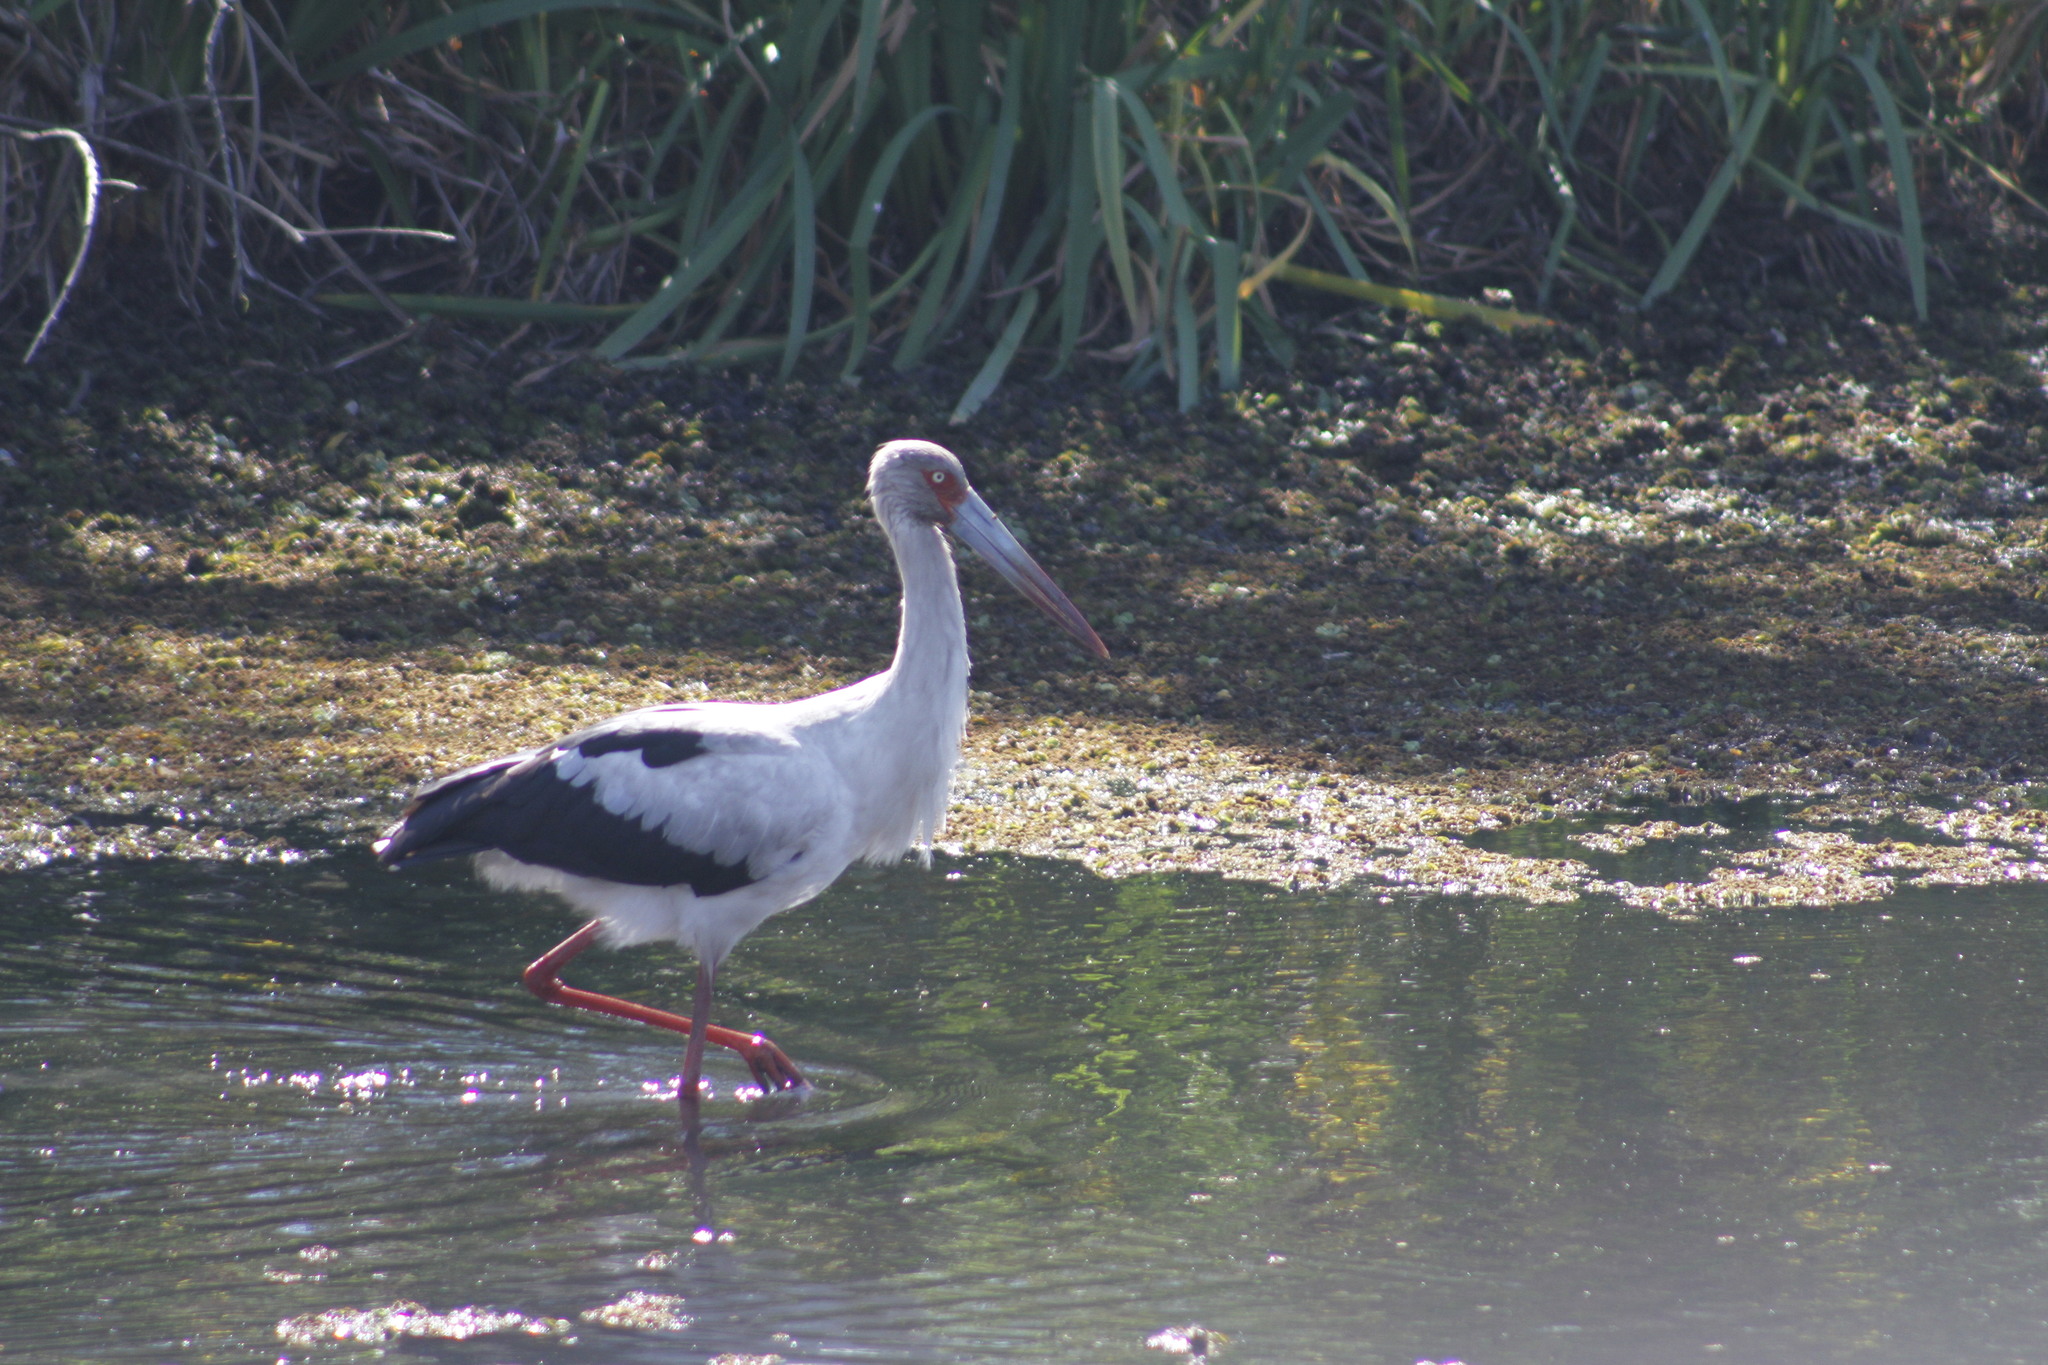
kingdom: Animalia
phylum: Chordata
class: Aves
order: Ciconiiformes
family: Ciconiidae
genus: Ciconia
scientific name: Ciconia maguari
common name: Maguari stork
